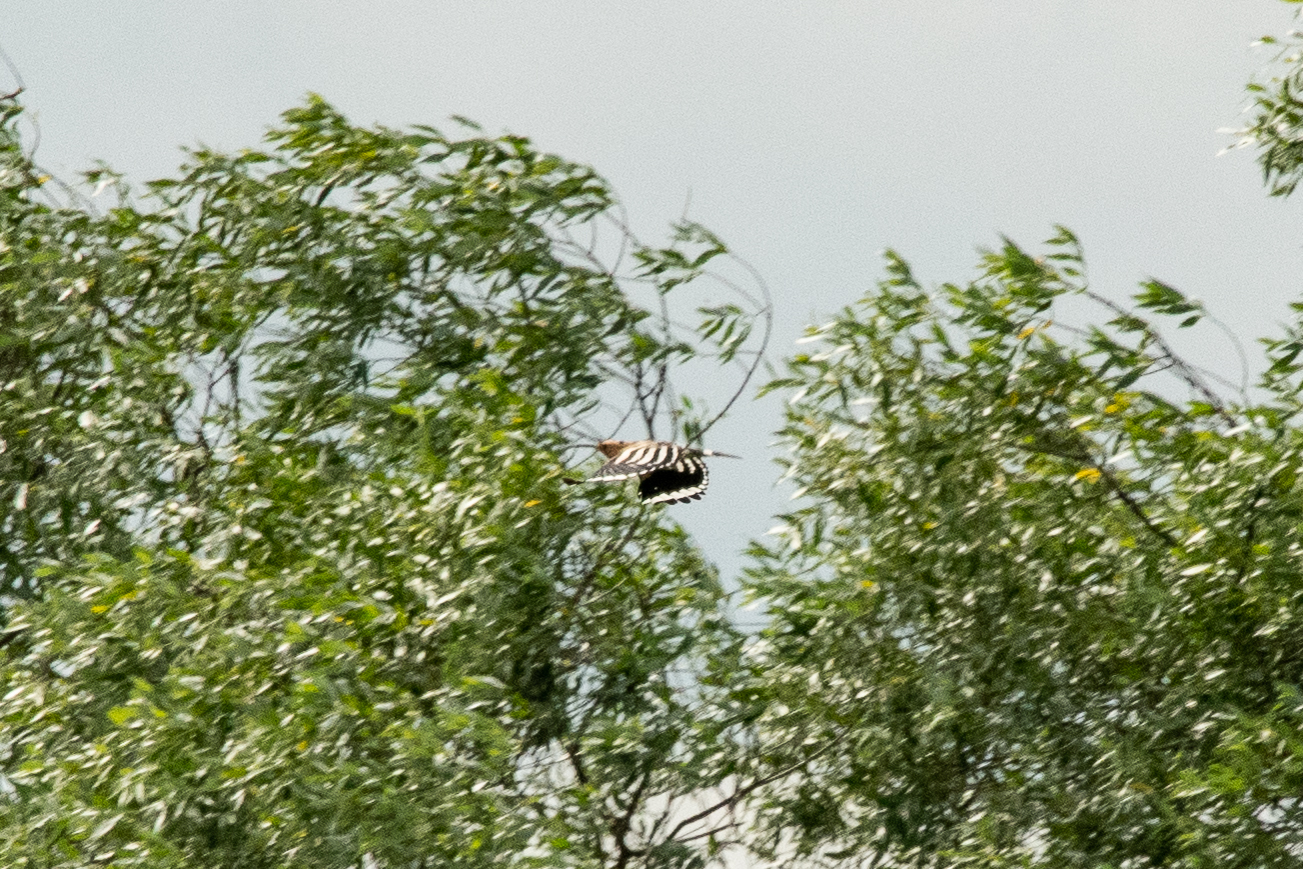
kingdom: Animalia
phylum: Chordata
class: Aves
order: Bucerotiformes
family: Upupidae
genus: Upupa
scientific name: Upupa epops
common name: Eurasian hoopoe
